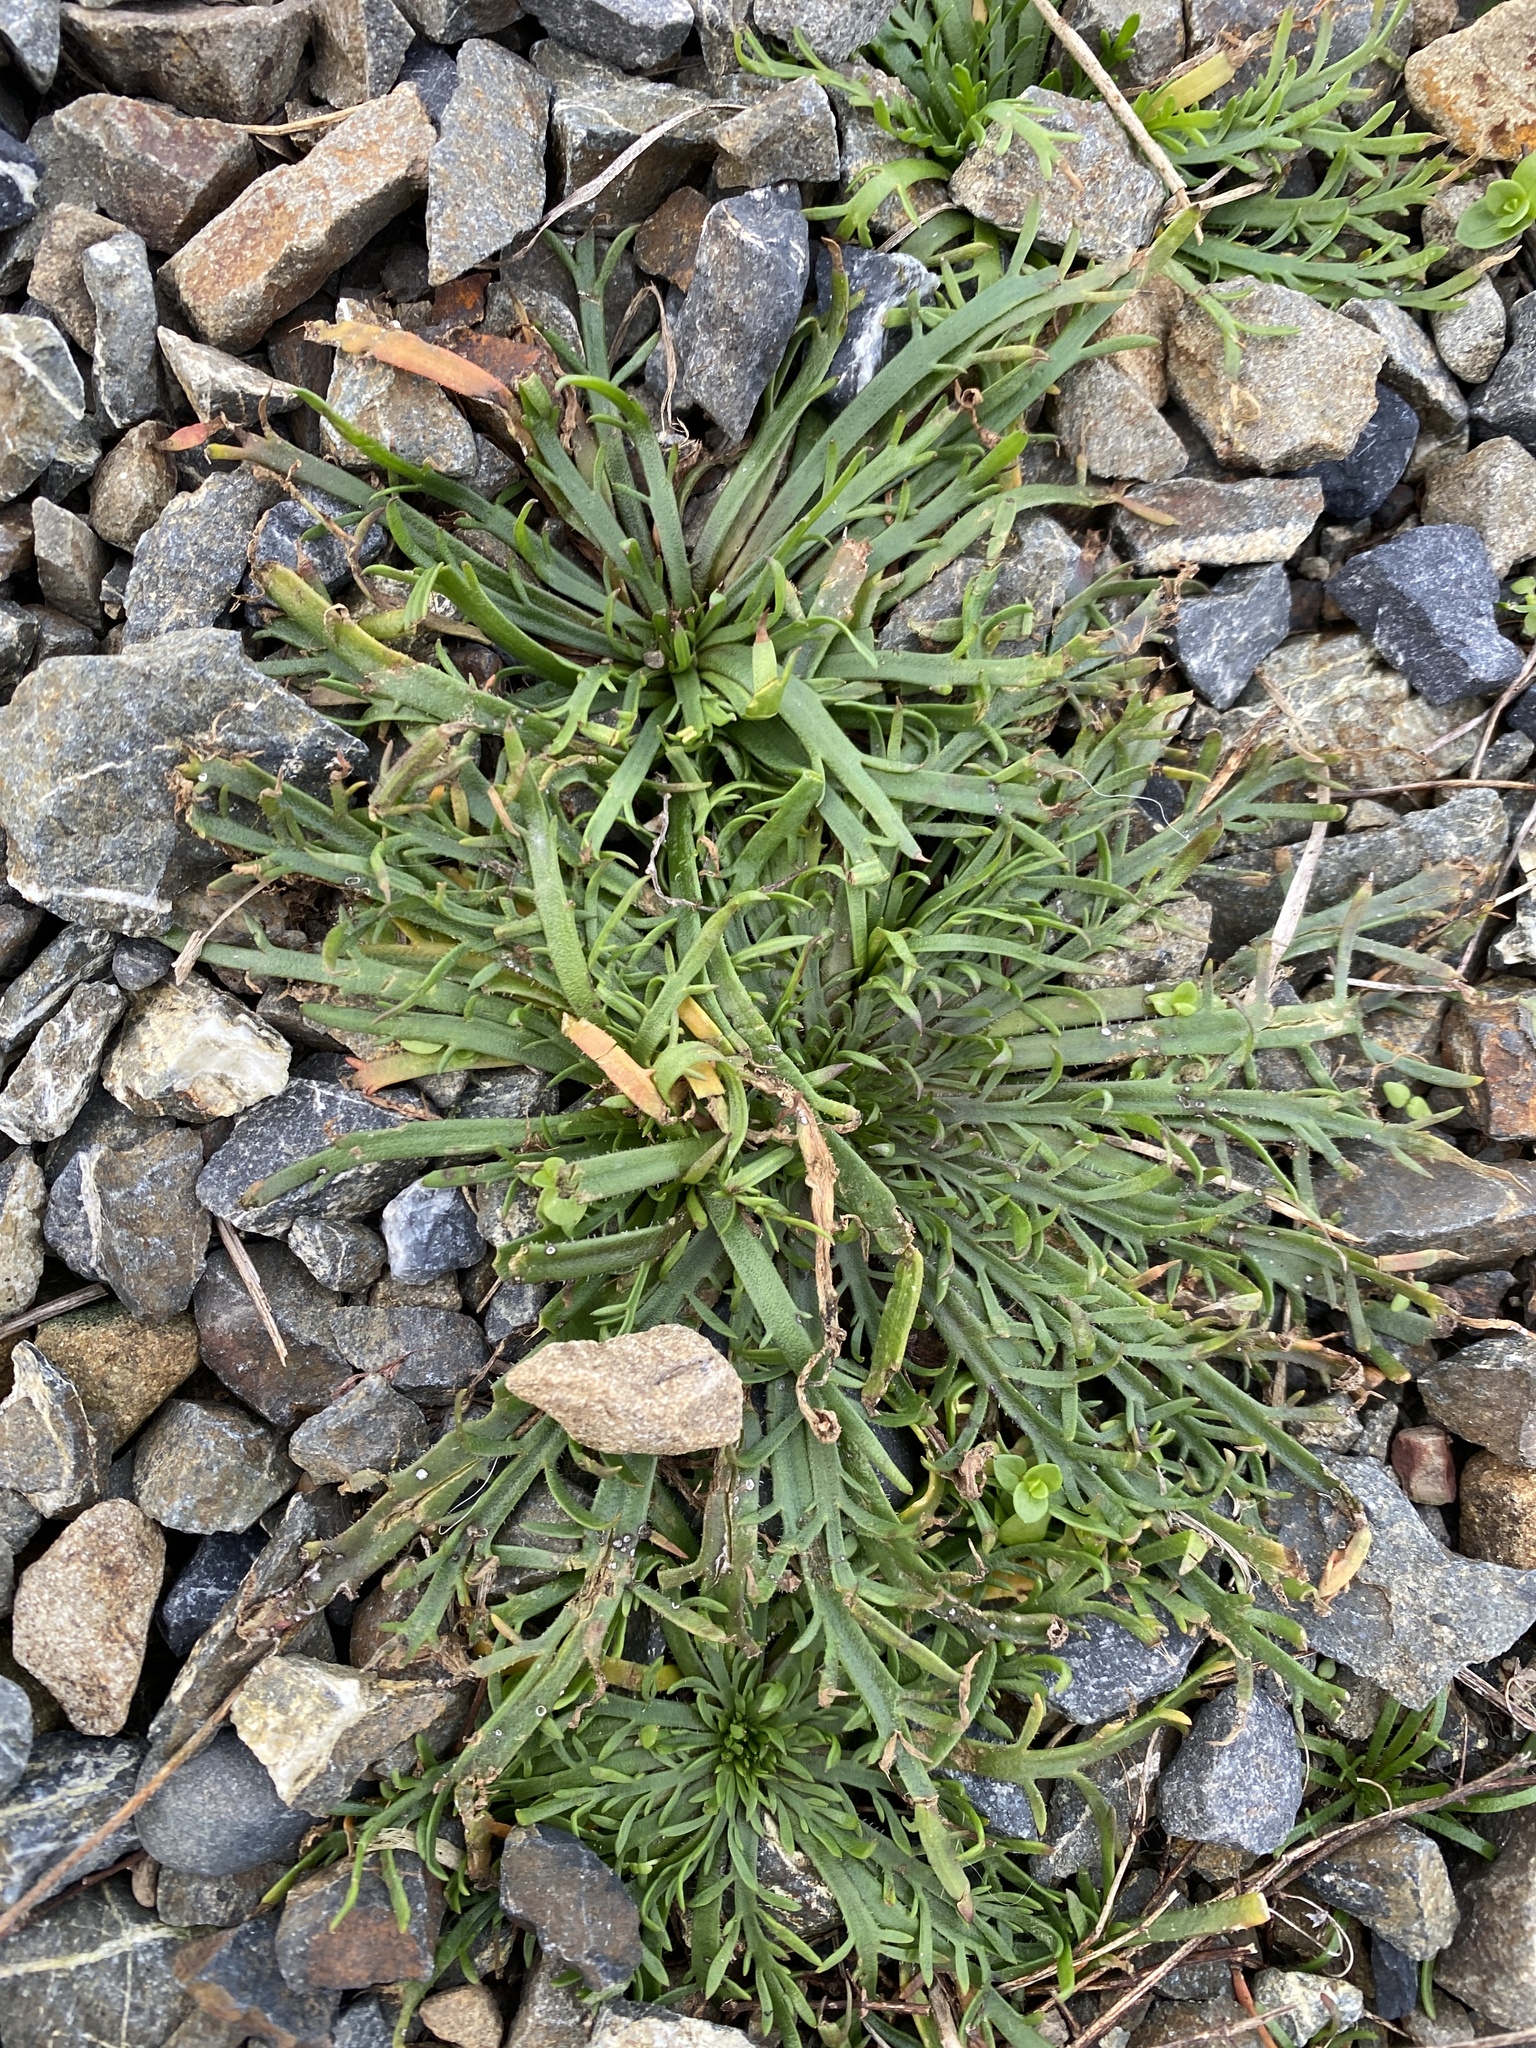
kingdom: Plantae
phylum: Tracheophyta
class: Magnoliopsida
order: Lamiales
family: Plantaginaceae
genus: Plantago
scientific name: Plantago coronopus
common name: Buck's-horn plantain
